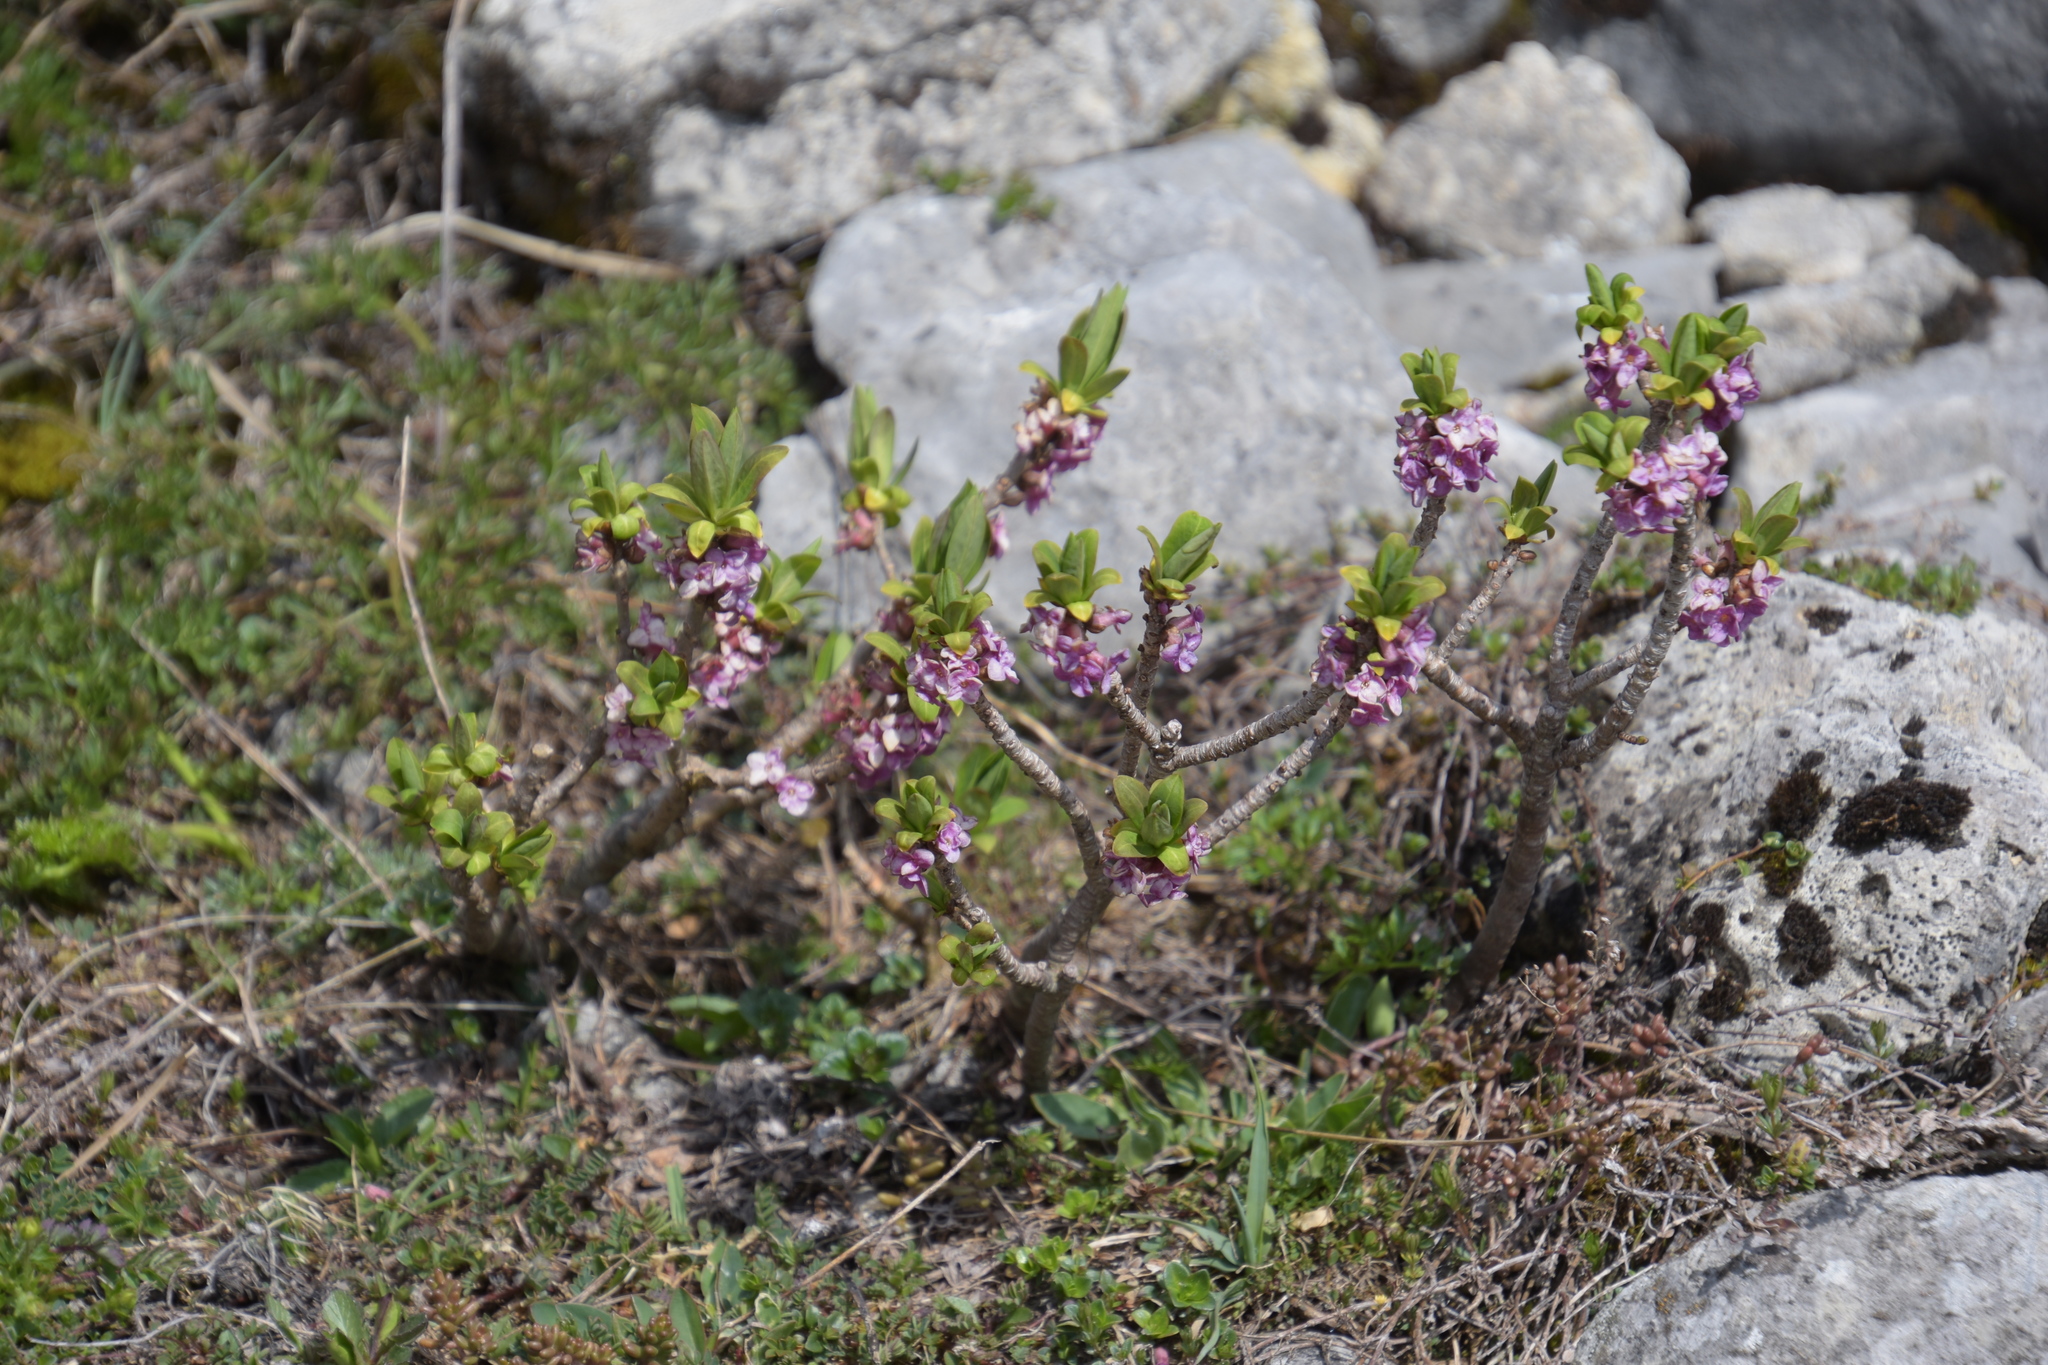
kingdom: Plantae
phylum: Tracheophyta
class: Magnoliopsida
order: Malvales
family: Thymelaeaceae
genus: Daphne
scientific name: Daphne mezereum
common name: Mezereon
